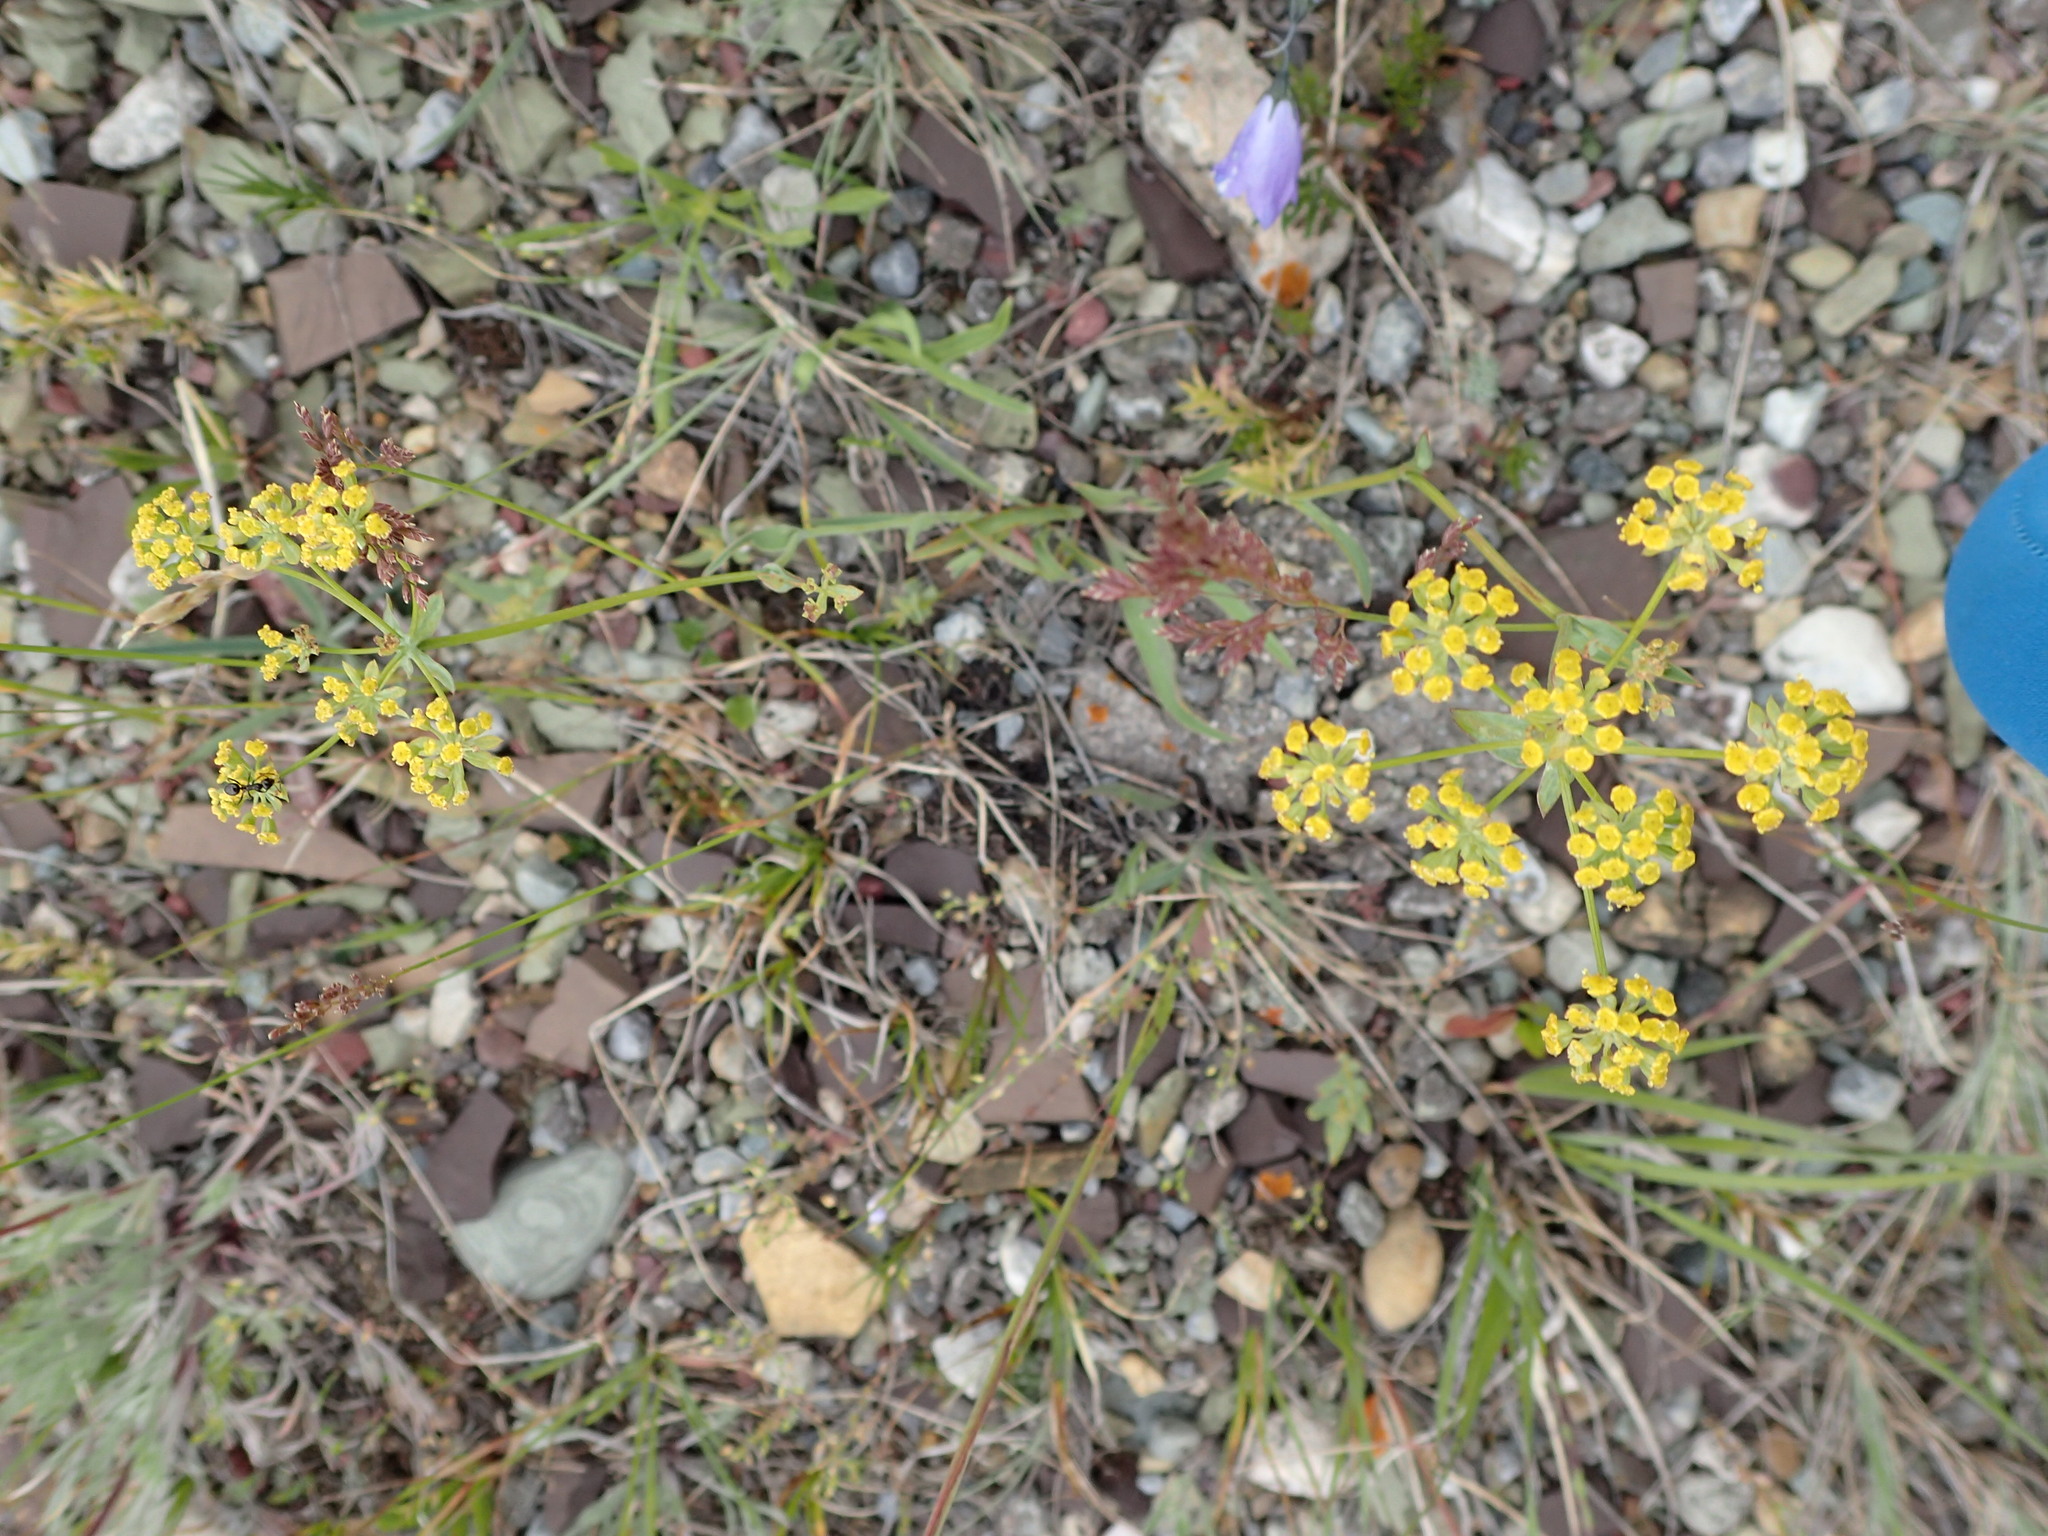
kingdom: Plantae
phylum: Tracheophyta
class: Magnoliopsida
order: Apiales
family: Apiaceae
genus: Bupleurum
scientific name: Bupleurum americanum
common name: American thoroughwax
